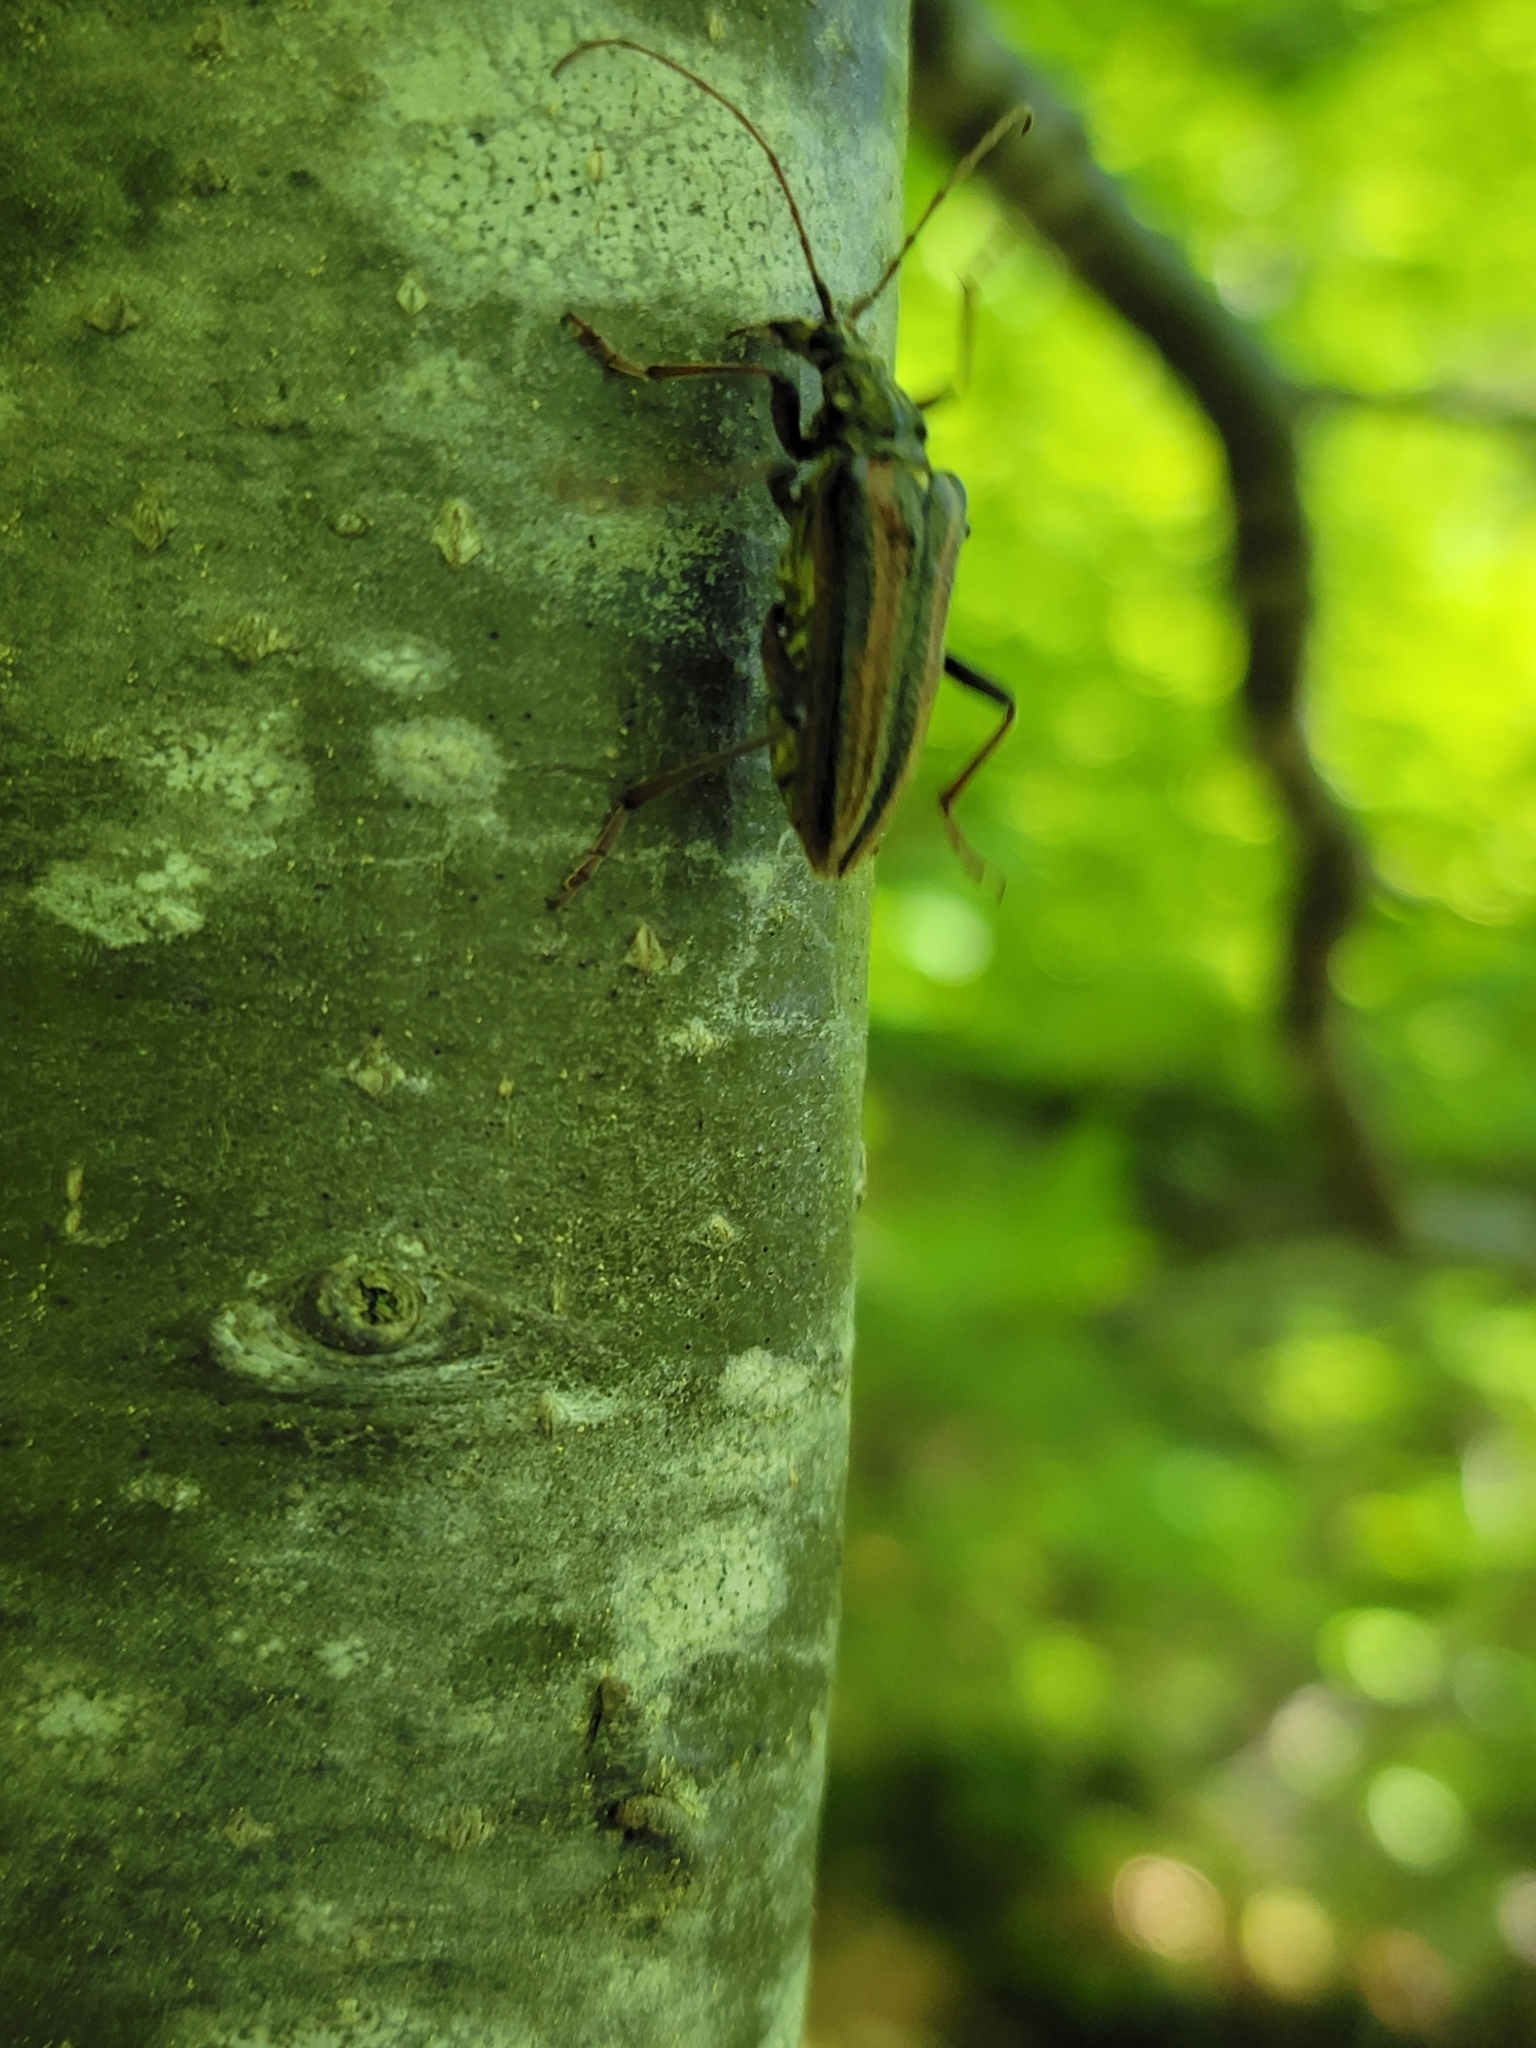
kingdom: Animalia
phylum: Arthropoda
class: Insecta
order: Coleoptera
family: Cerambycidae
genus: Oxymirus
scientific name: Oxymirus cursor
